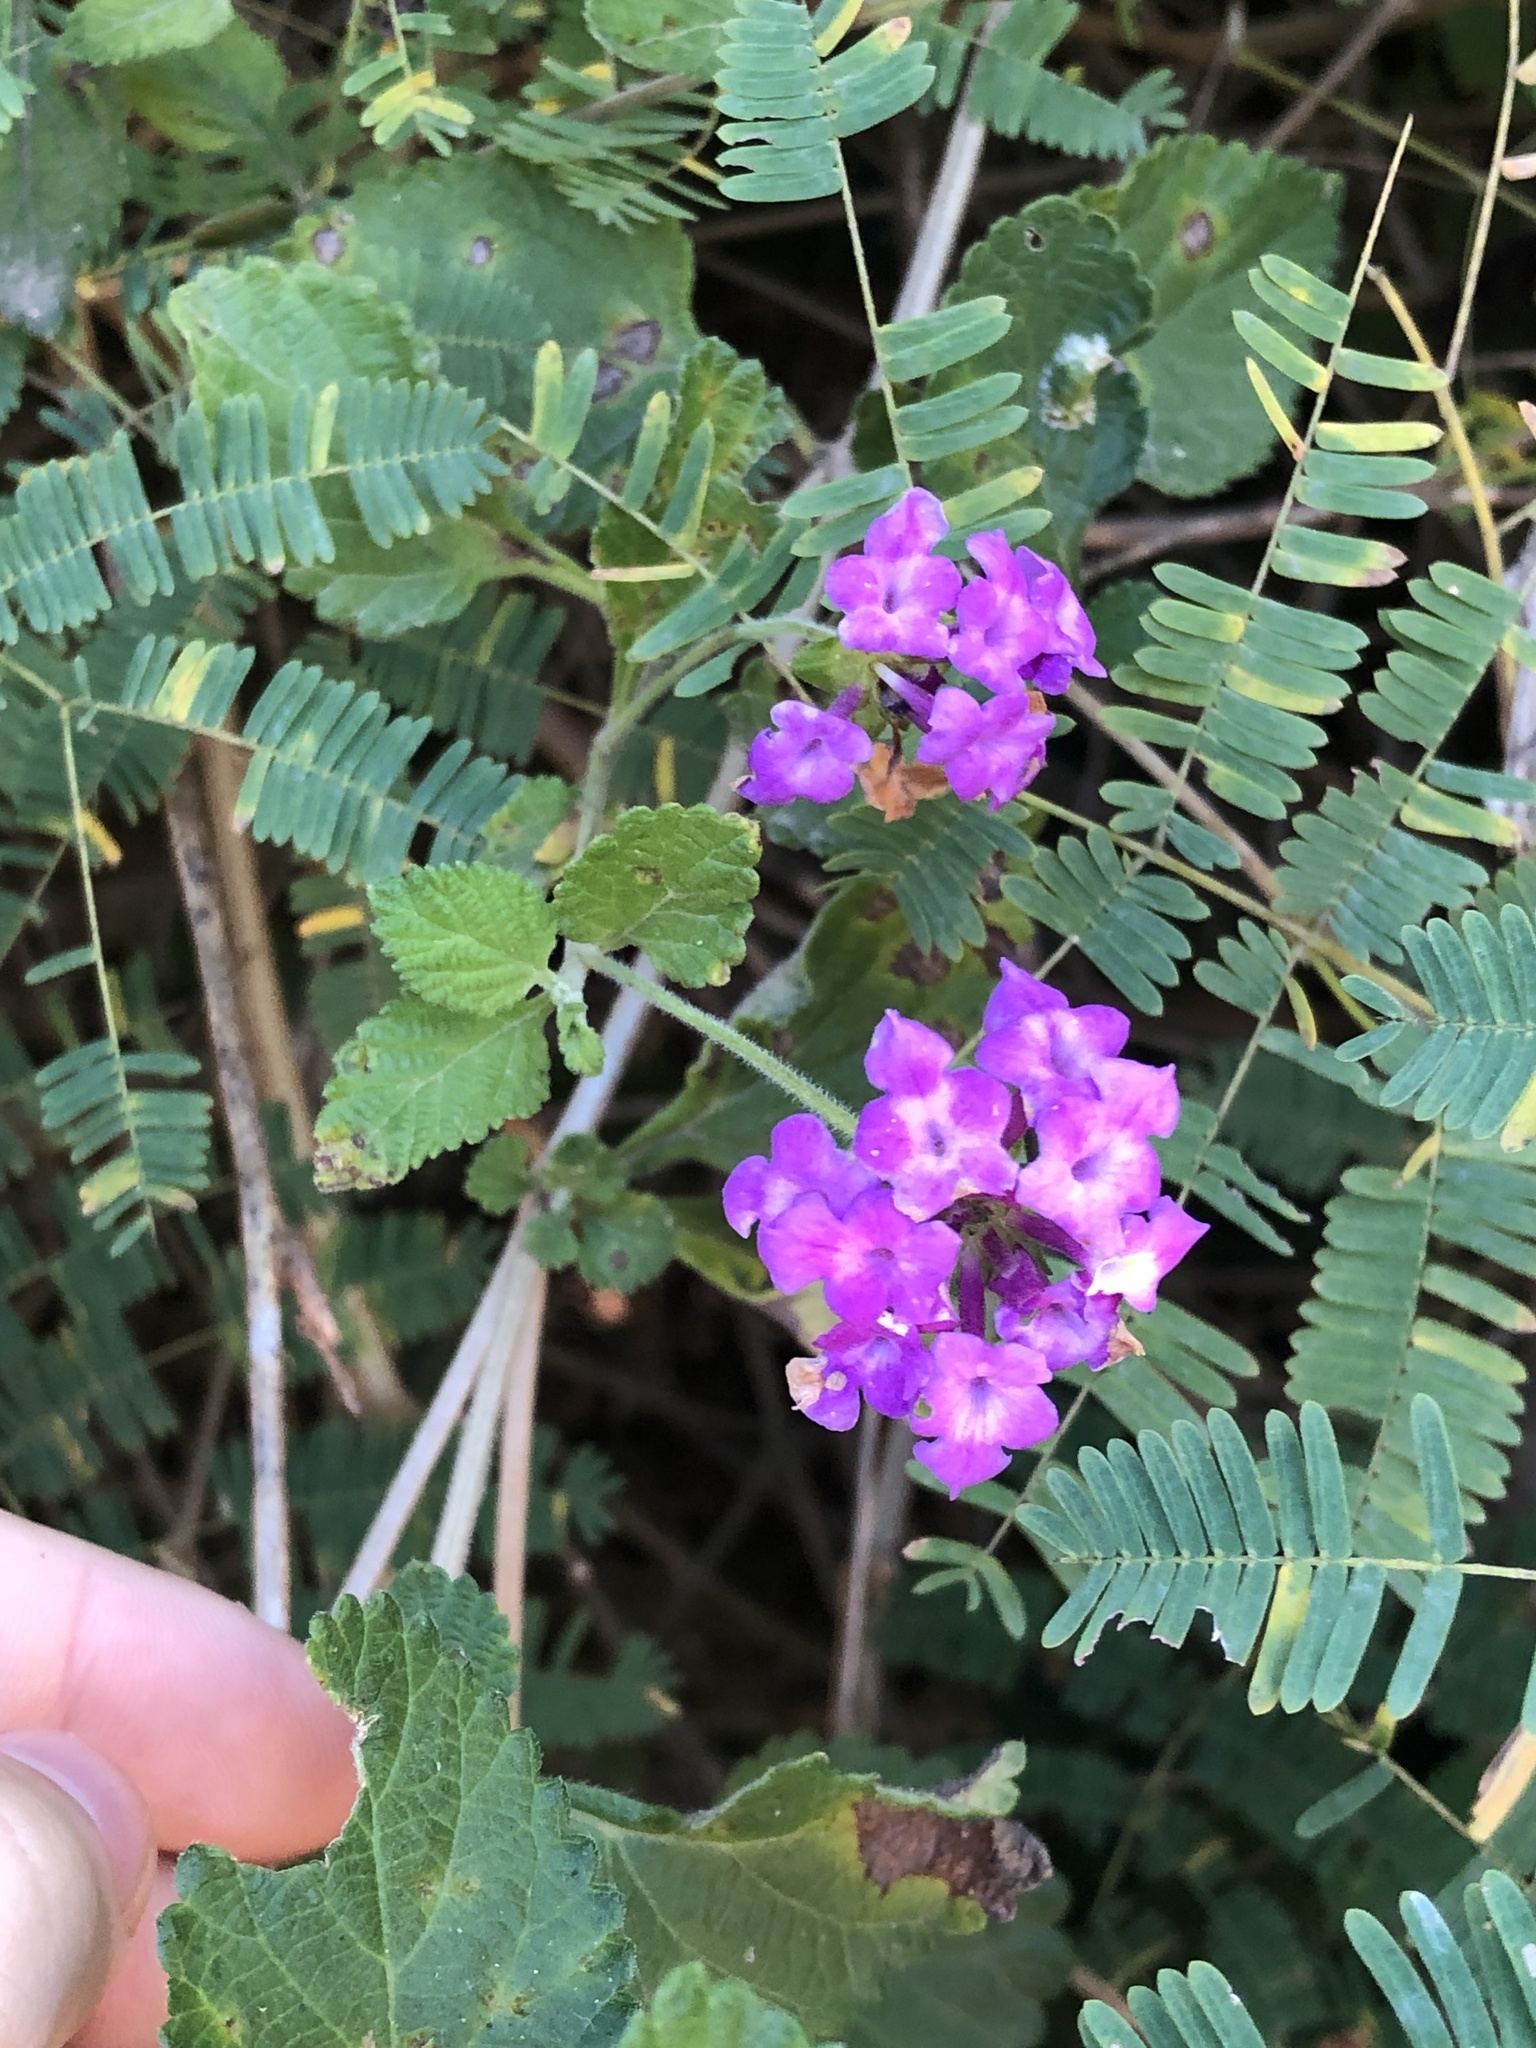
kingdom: Plantae
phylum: Tracheophyta
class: Magnoliopsida
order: Lamiales
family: Verbenaceae
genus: Lantana
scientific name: Lantana montevidensis
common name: Trailing shrubverbena
